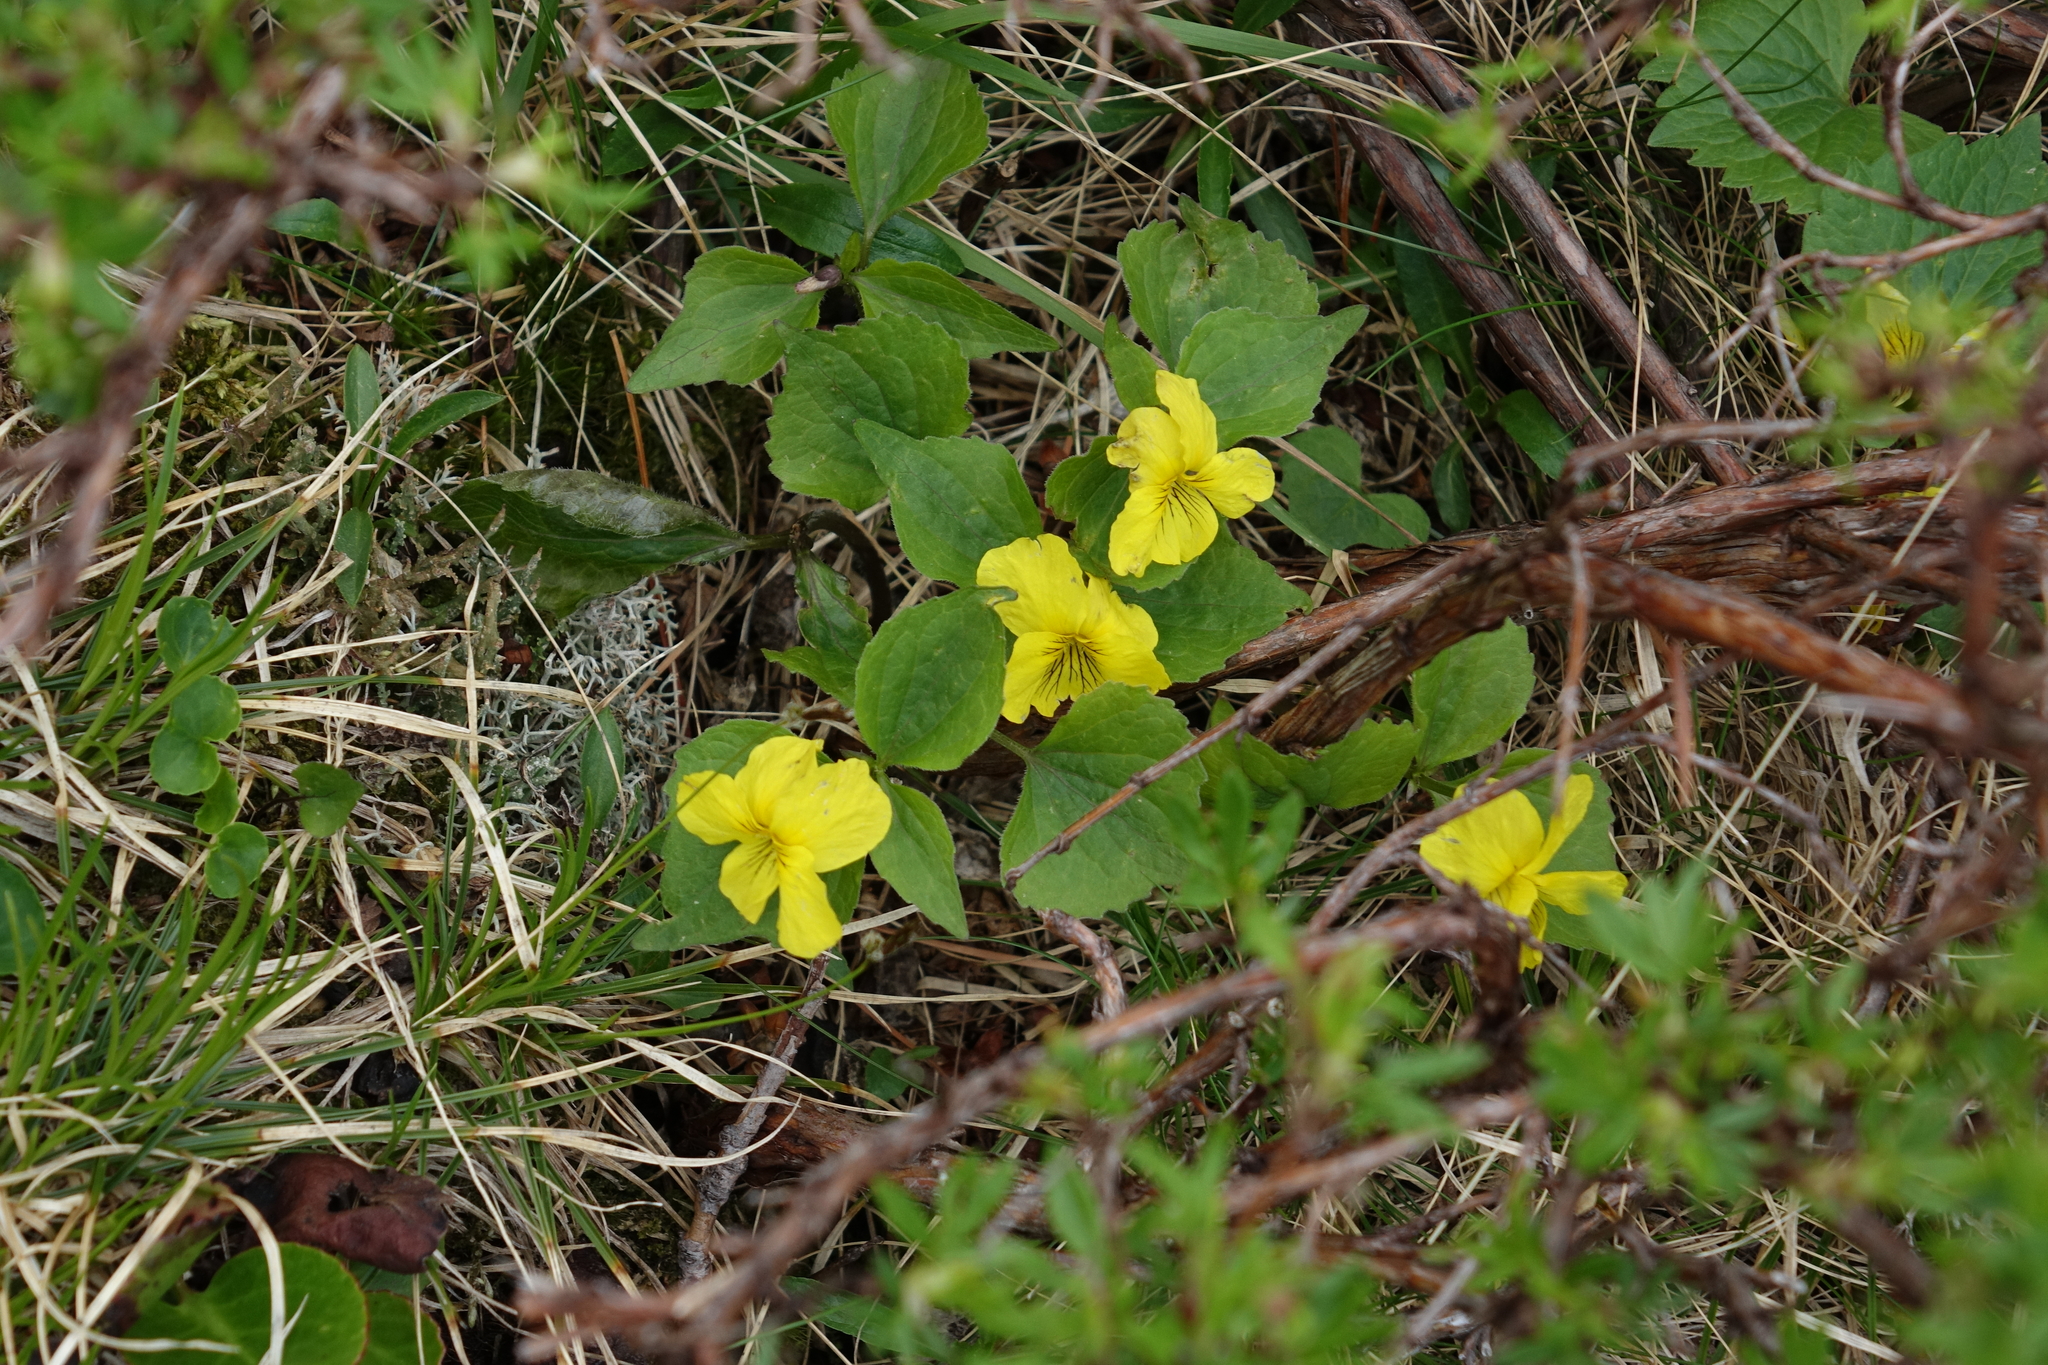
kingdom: Plantae
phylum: Tracheophyta
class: Magnoliopsida
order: Malpighiales
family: Violaceae
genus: Viola
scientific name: Viola uniflora
